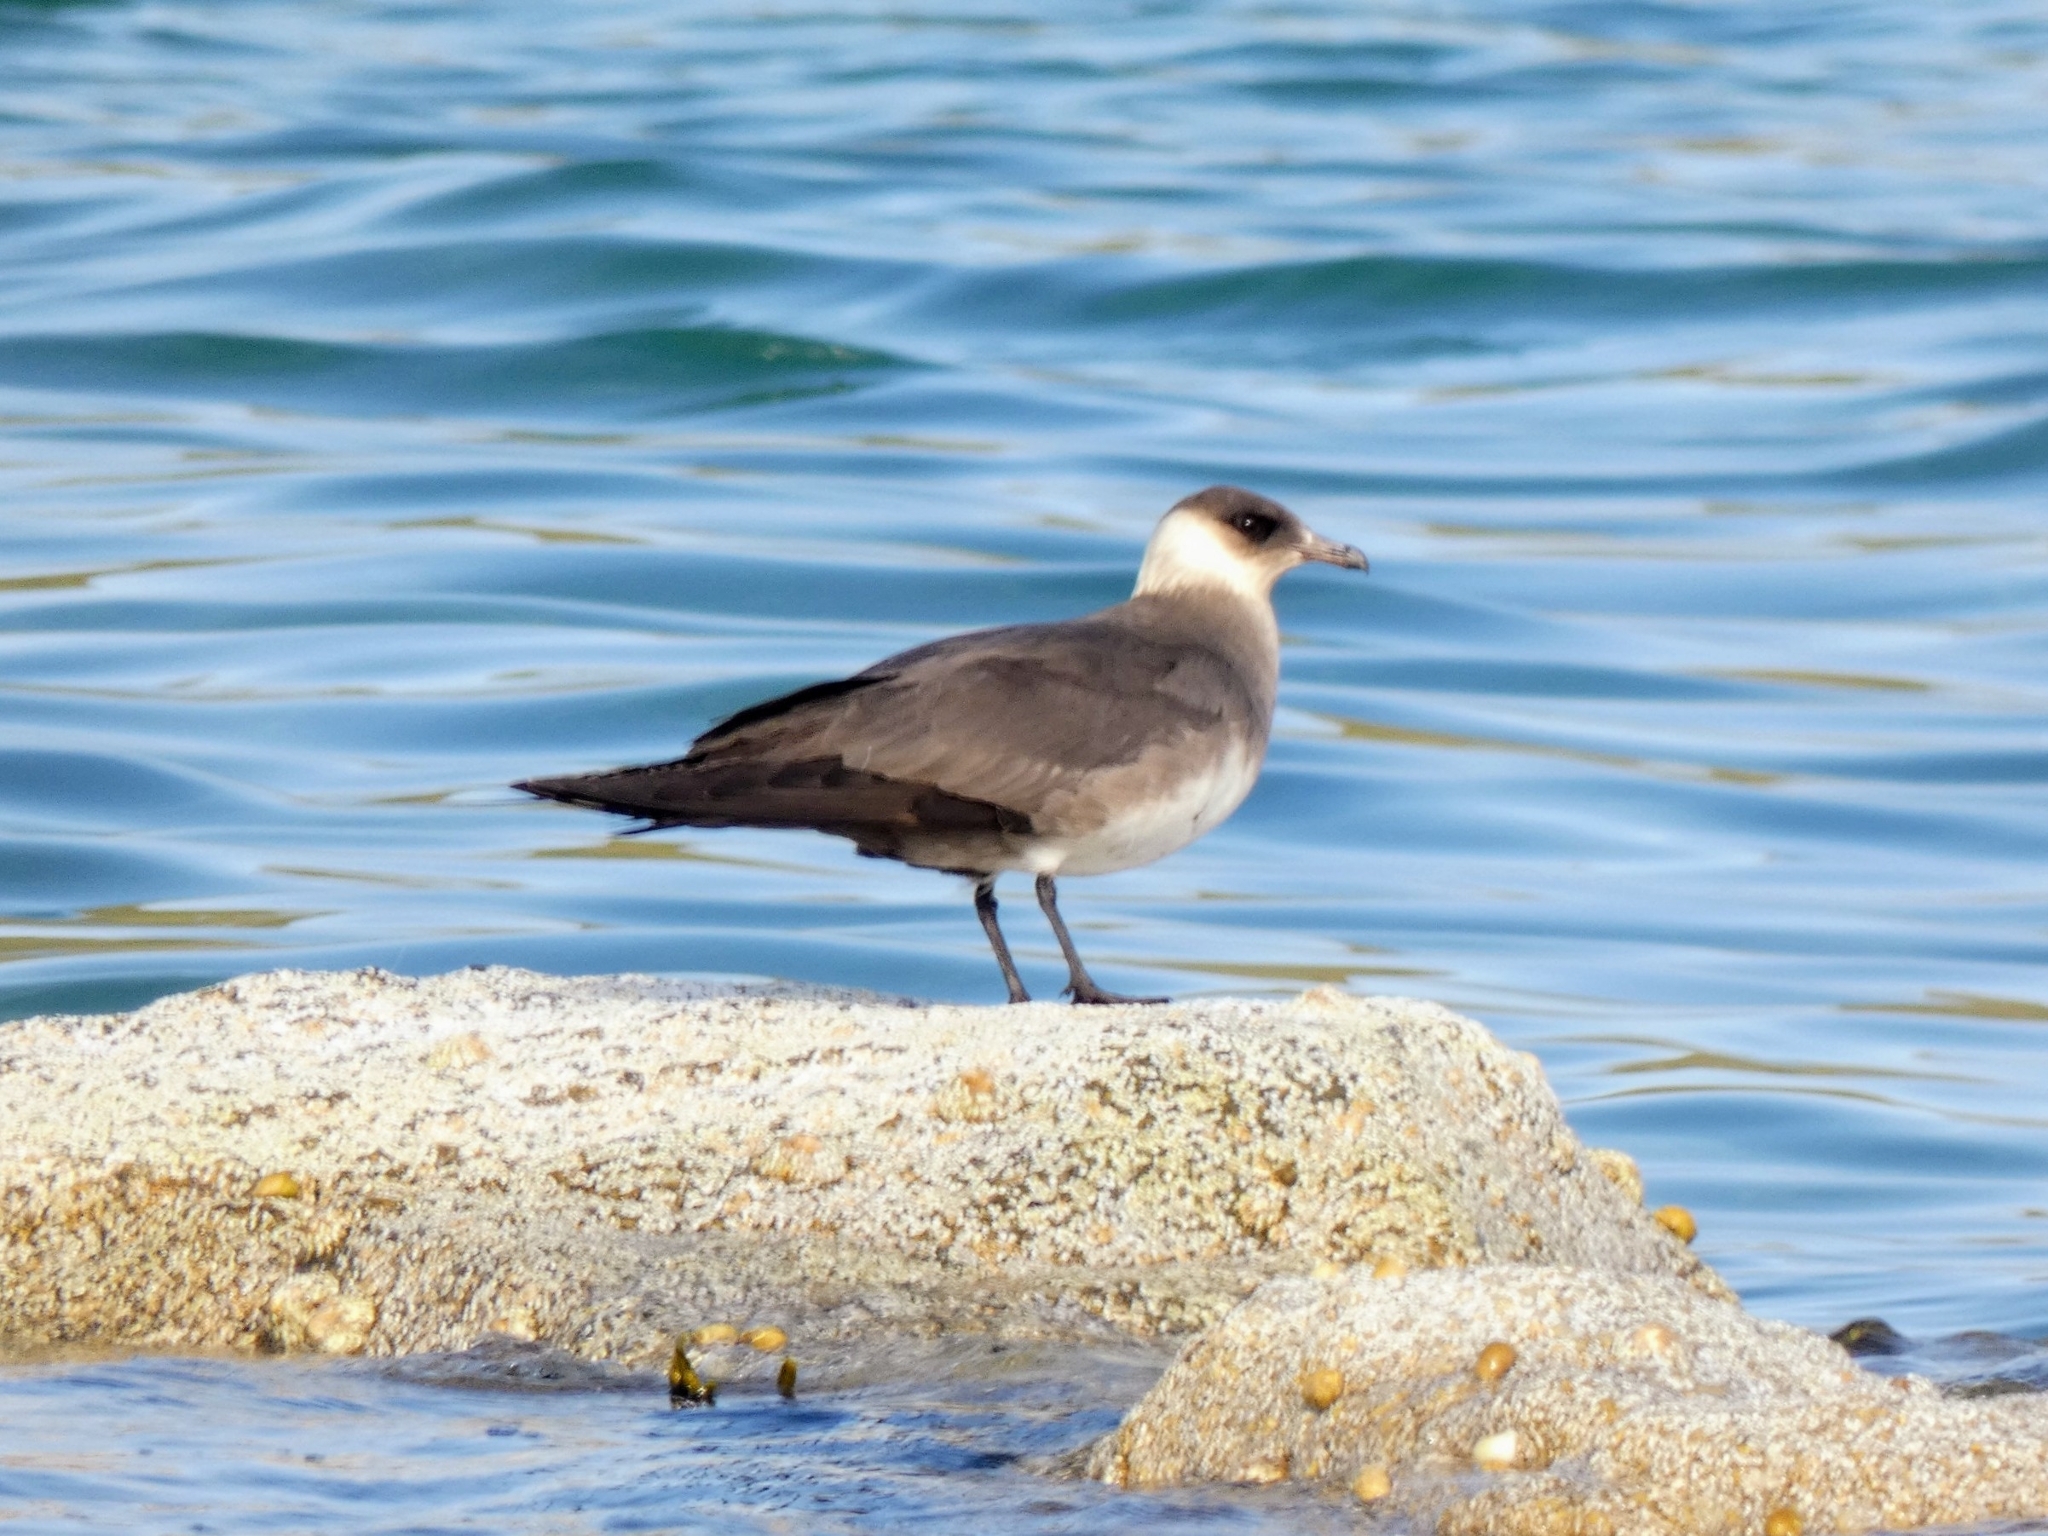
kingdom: Animalia
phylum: Chordata
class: Aves
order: Charadriiformes
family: Stercorariidae
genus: Stercorarius
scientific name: Stercorarius parasiticus
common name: Parasitic jaeger
